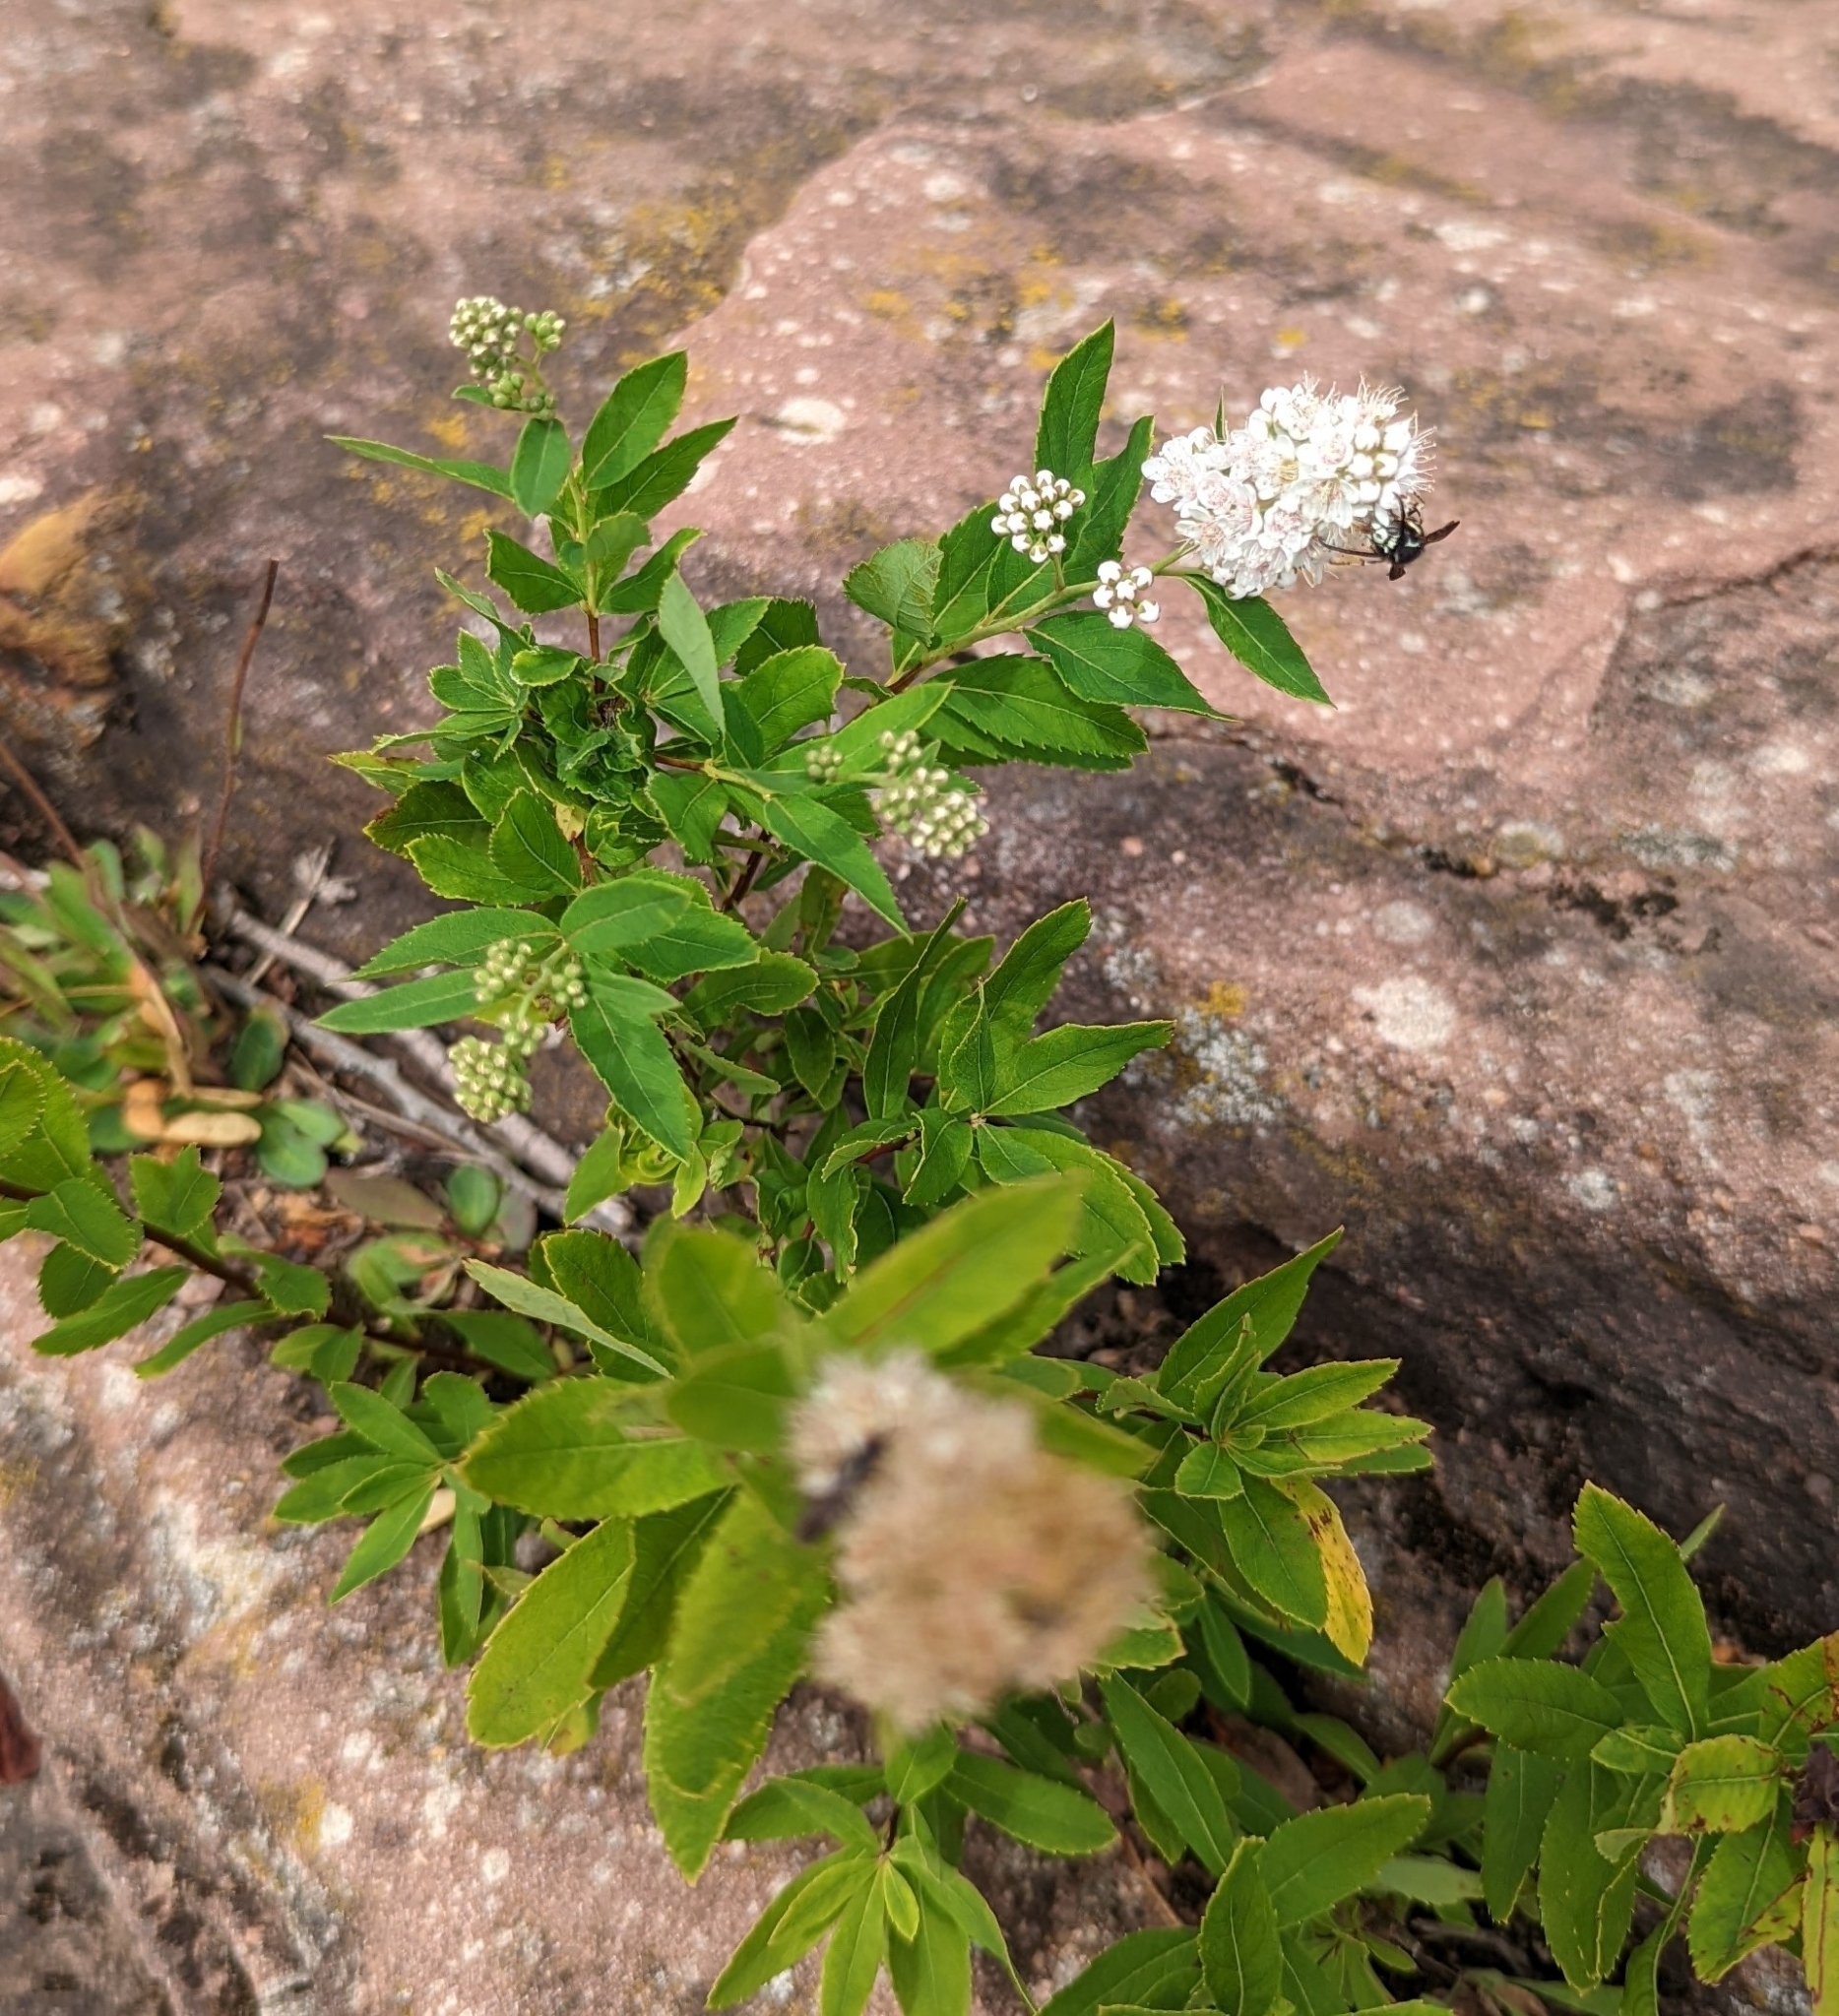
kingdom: Plantae
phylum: Tracheophyta
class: Magnoliopsida
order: Rosales
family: Rosaceae
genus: Spiraea
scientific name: Spiraea alba
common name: Pale bridewort
